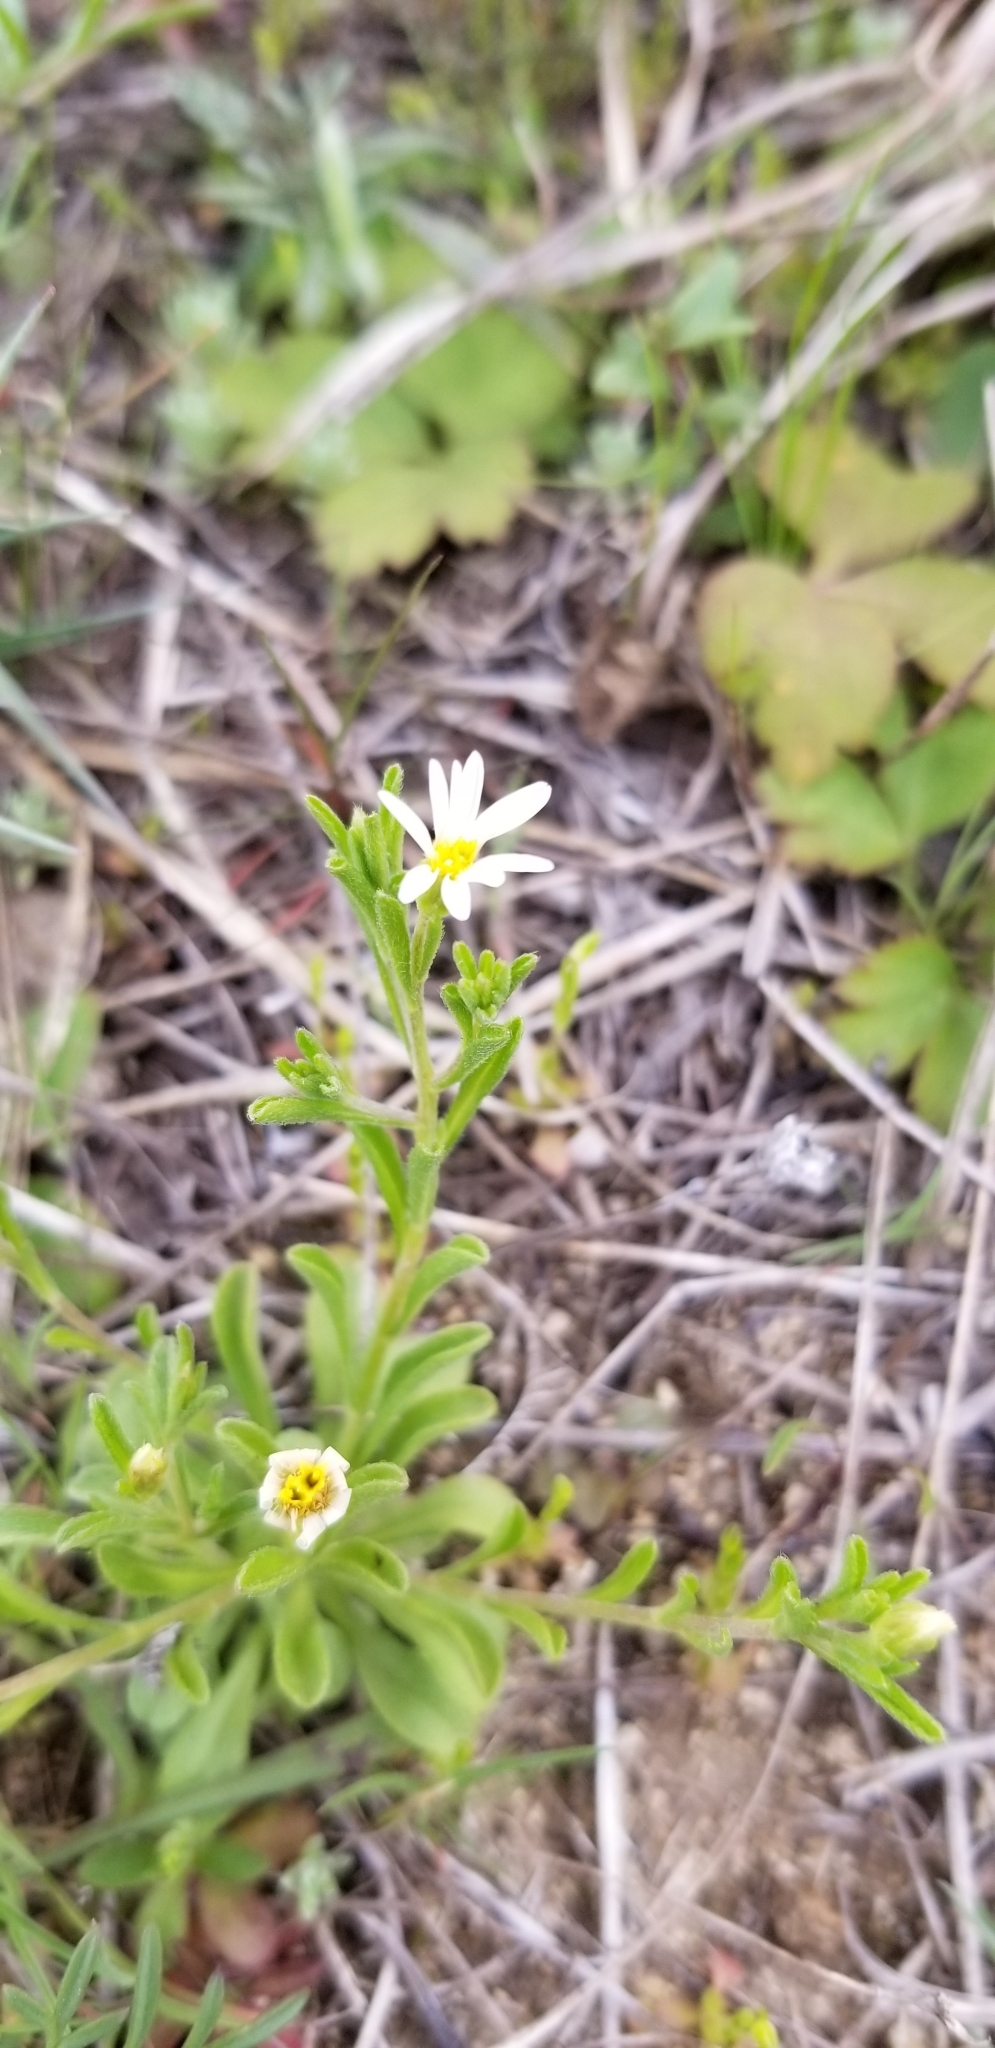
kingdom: Plantae
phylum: Tracheophyta
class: Magnoliopsida
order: Asterales
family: Asteraceae
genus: Chaetopappa
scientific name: Chaetopappa asteroides
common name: Tiny lazy daisy
